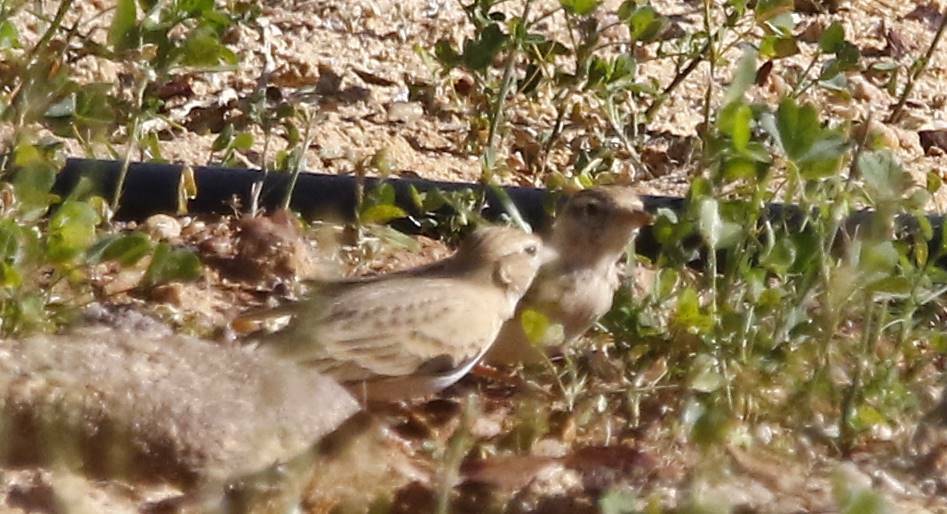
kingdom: Animalia
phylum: Chordata
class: Aves
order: Passeriformes
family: Alaudidae
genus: Calandrella
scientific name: Calandrella brachydactyla
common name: Greater short-toed lark
